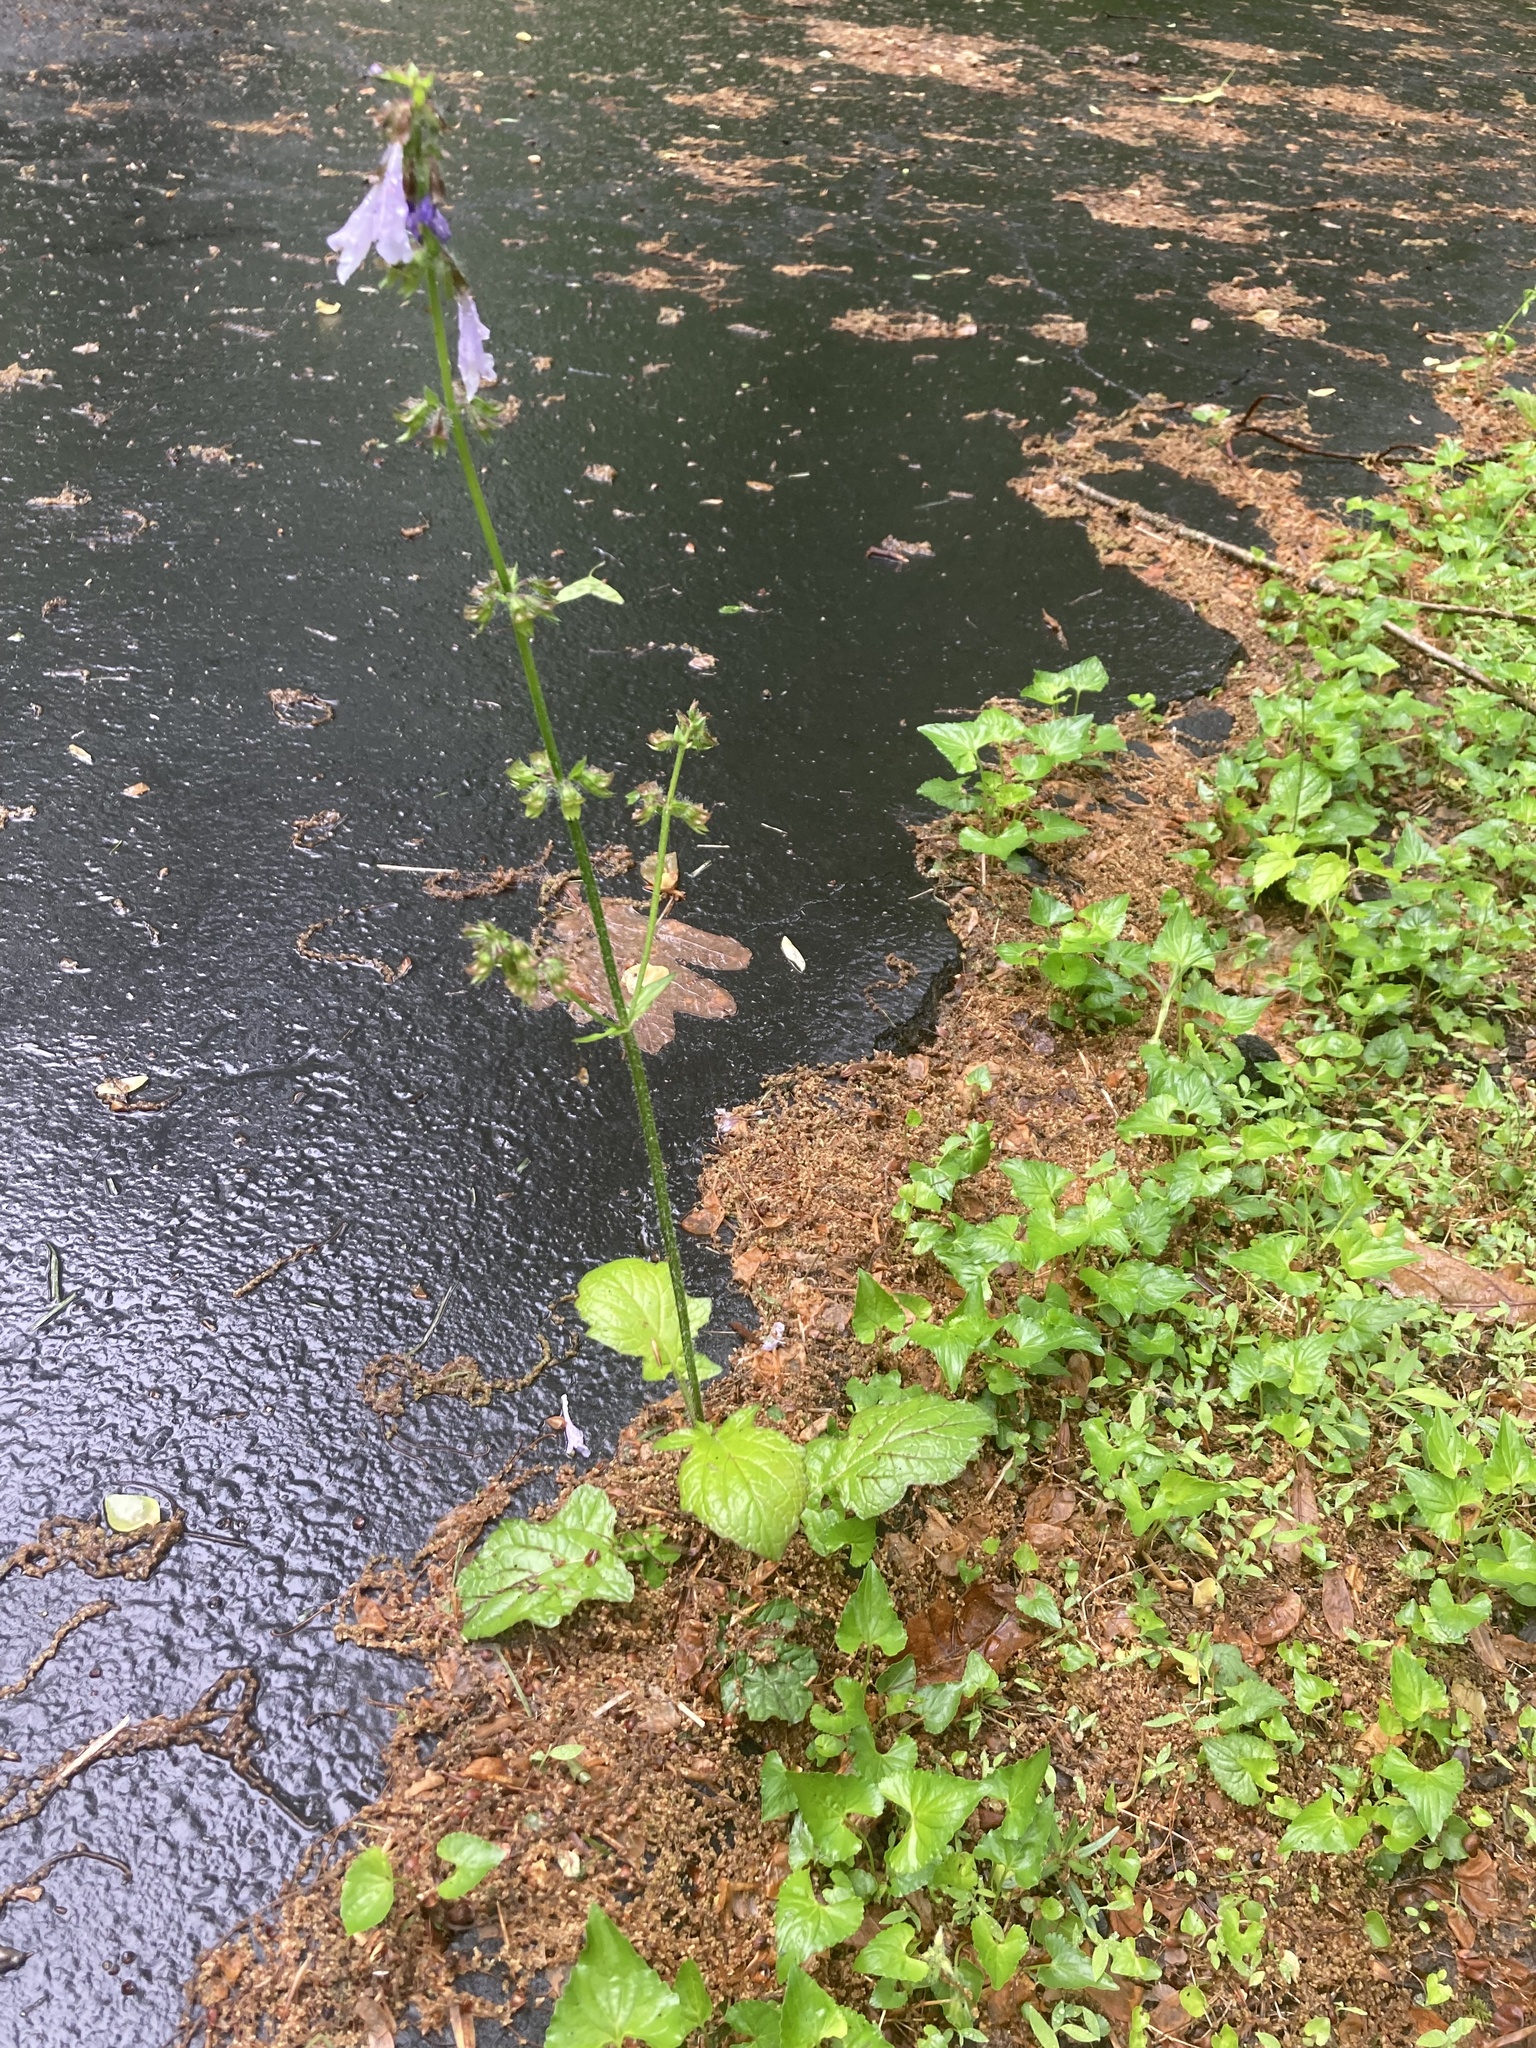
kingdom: Plantae
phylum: Tracheophyta
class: Magnoliopsida
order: Lamiales
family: Lamiaceae
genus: Salvia
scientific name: Salvia lyrata
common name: Cancerweed
